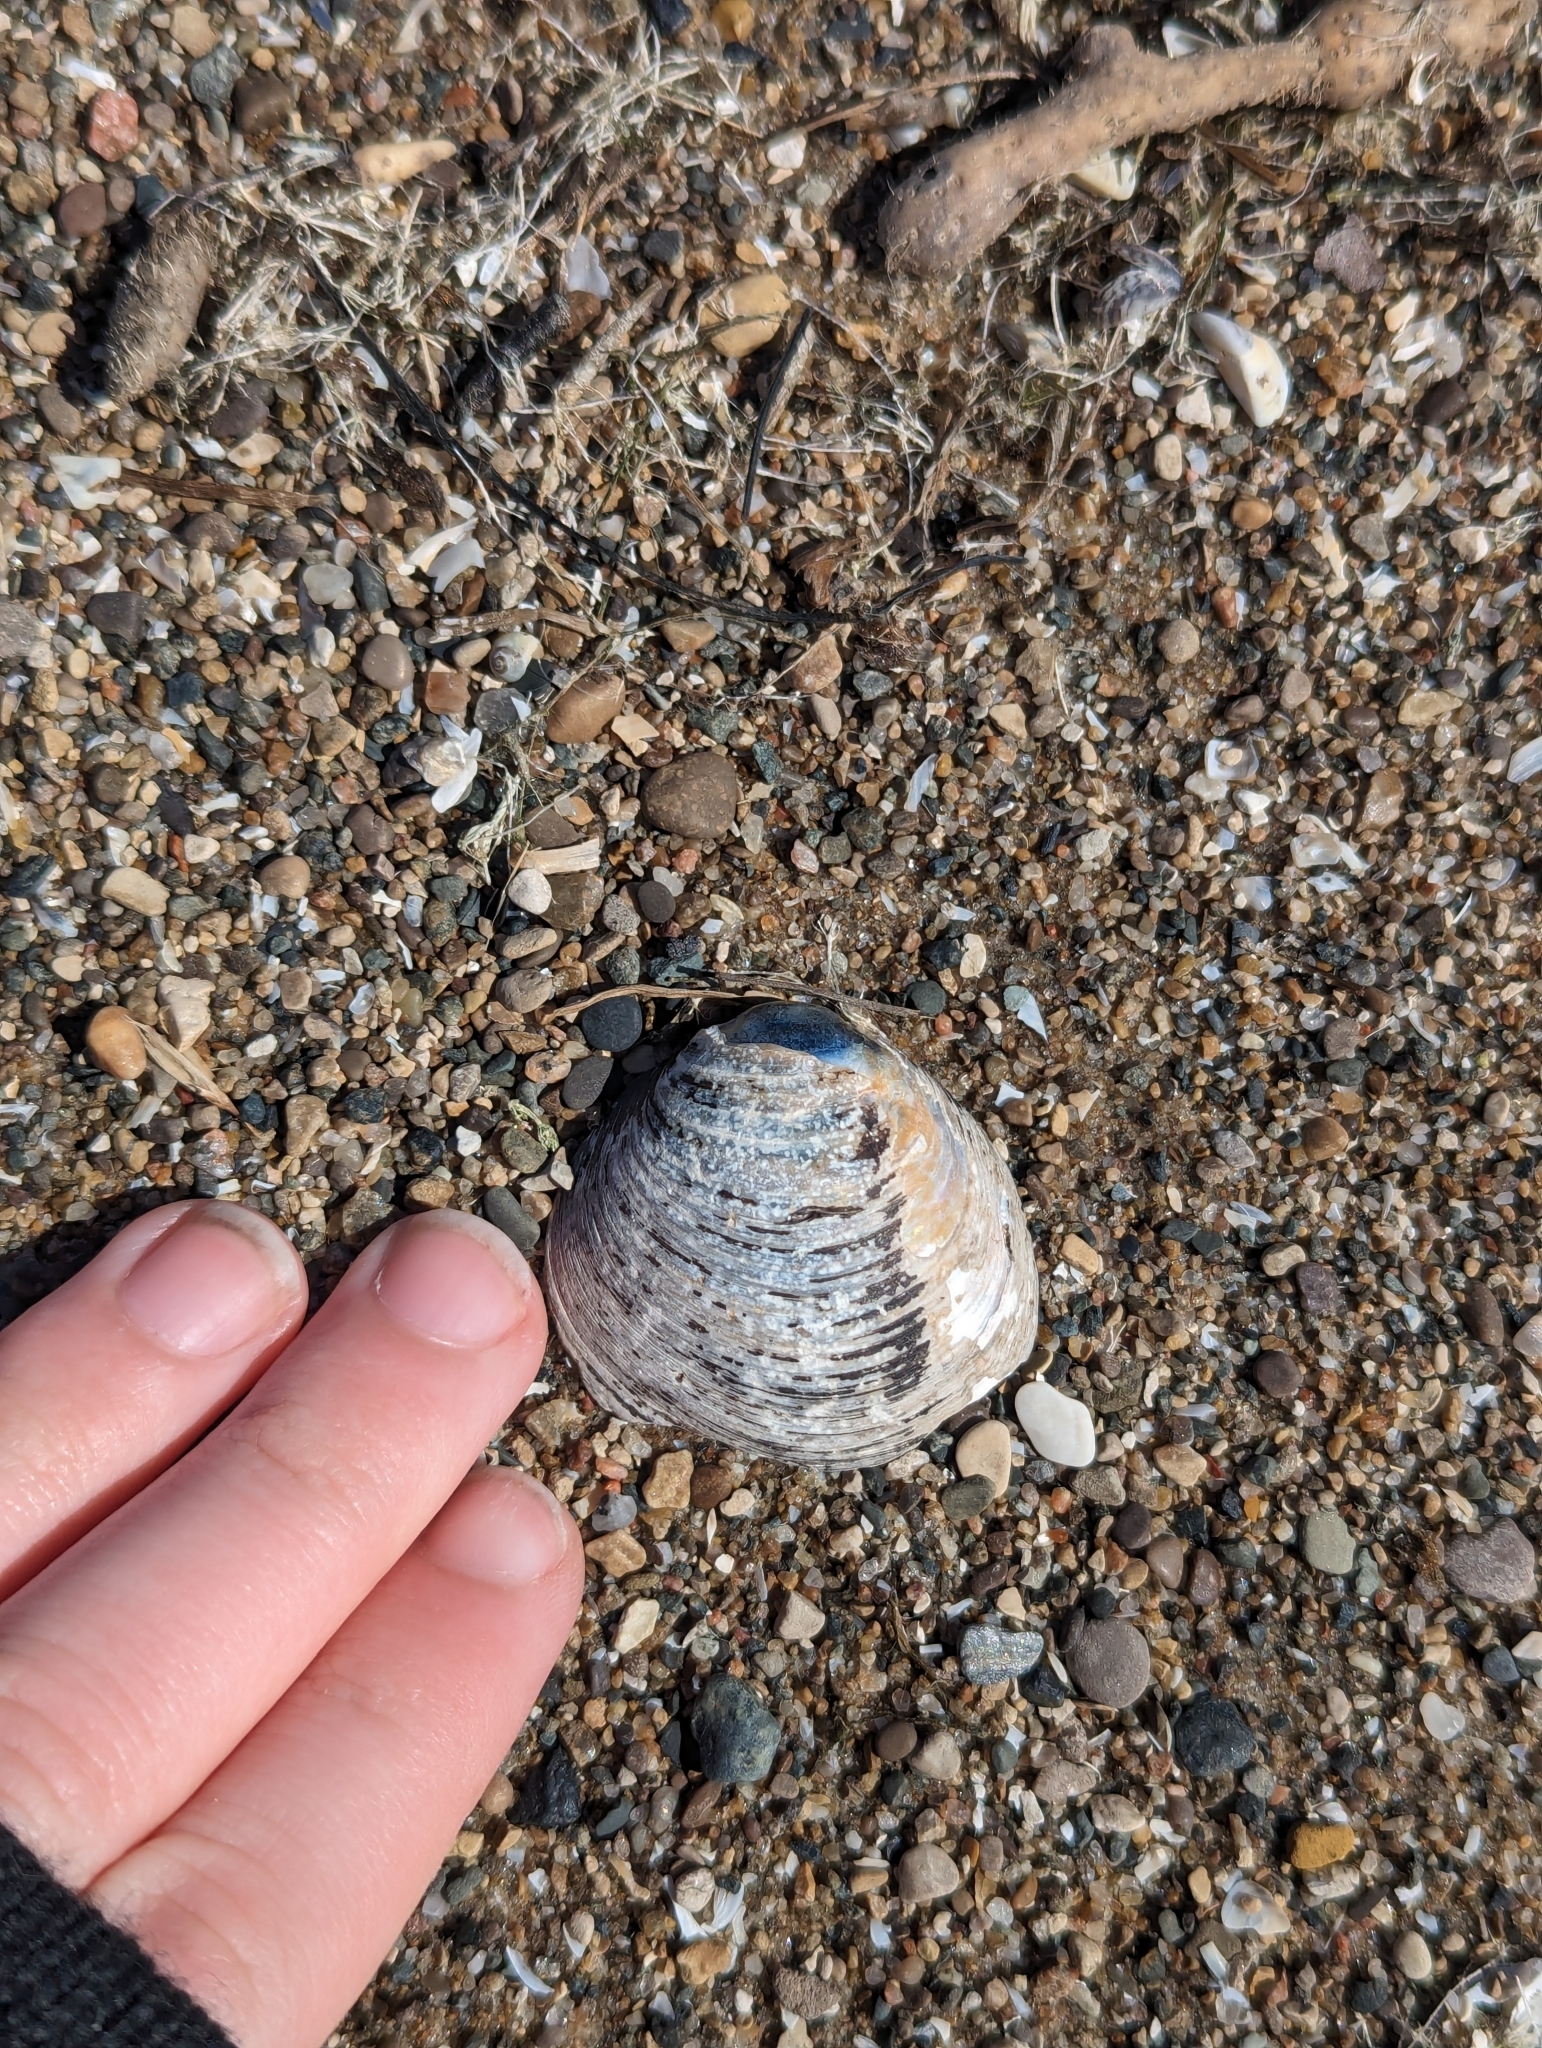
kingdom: Animalia
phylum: Mollusca
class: Bivalvia
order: Unionida
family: Unionidae
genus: Obovaria
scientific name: Obovaria subrotunda
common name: Round hickorynut
